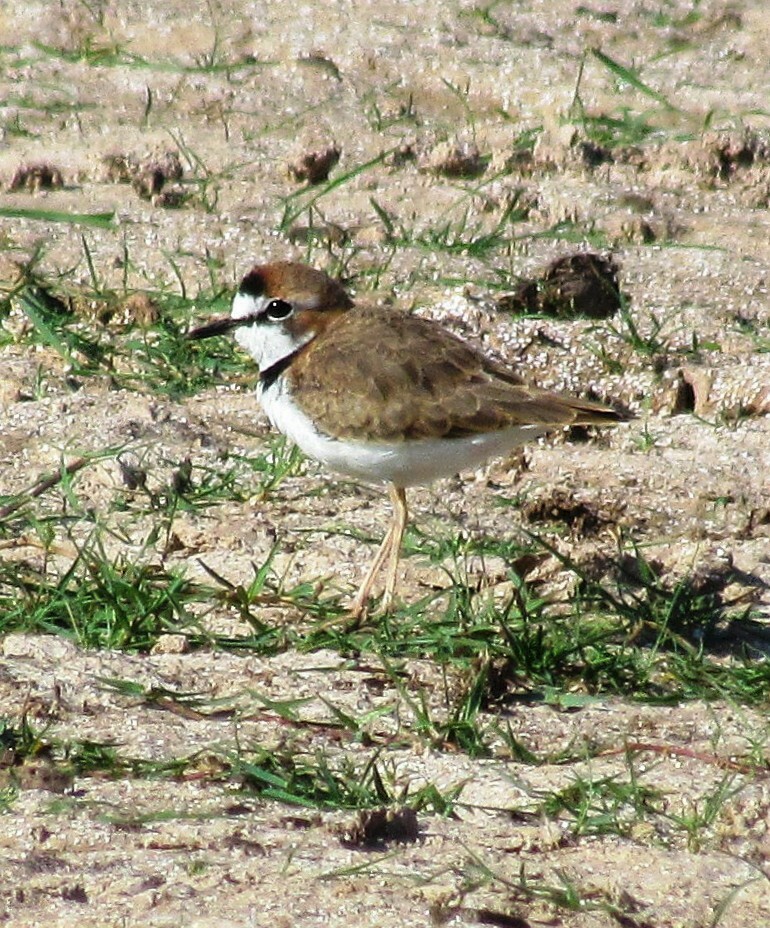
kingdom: Animalia
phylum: Chordata
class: Aves
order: Charadriiformes
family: Charadriidae
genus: Anarhynchus
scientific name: Anarhynchus
